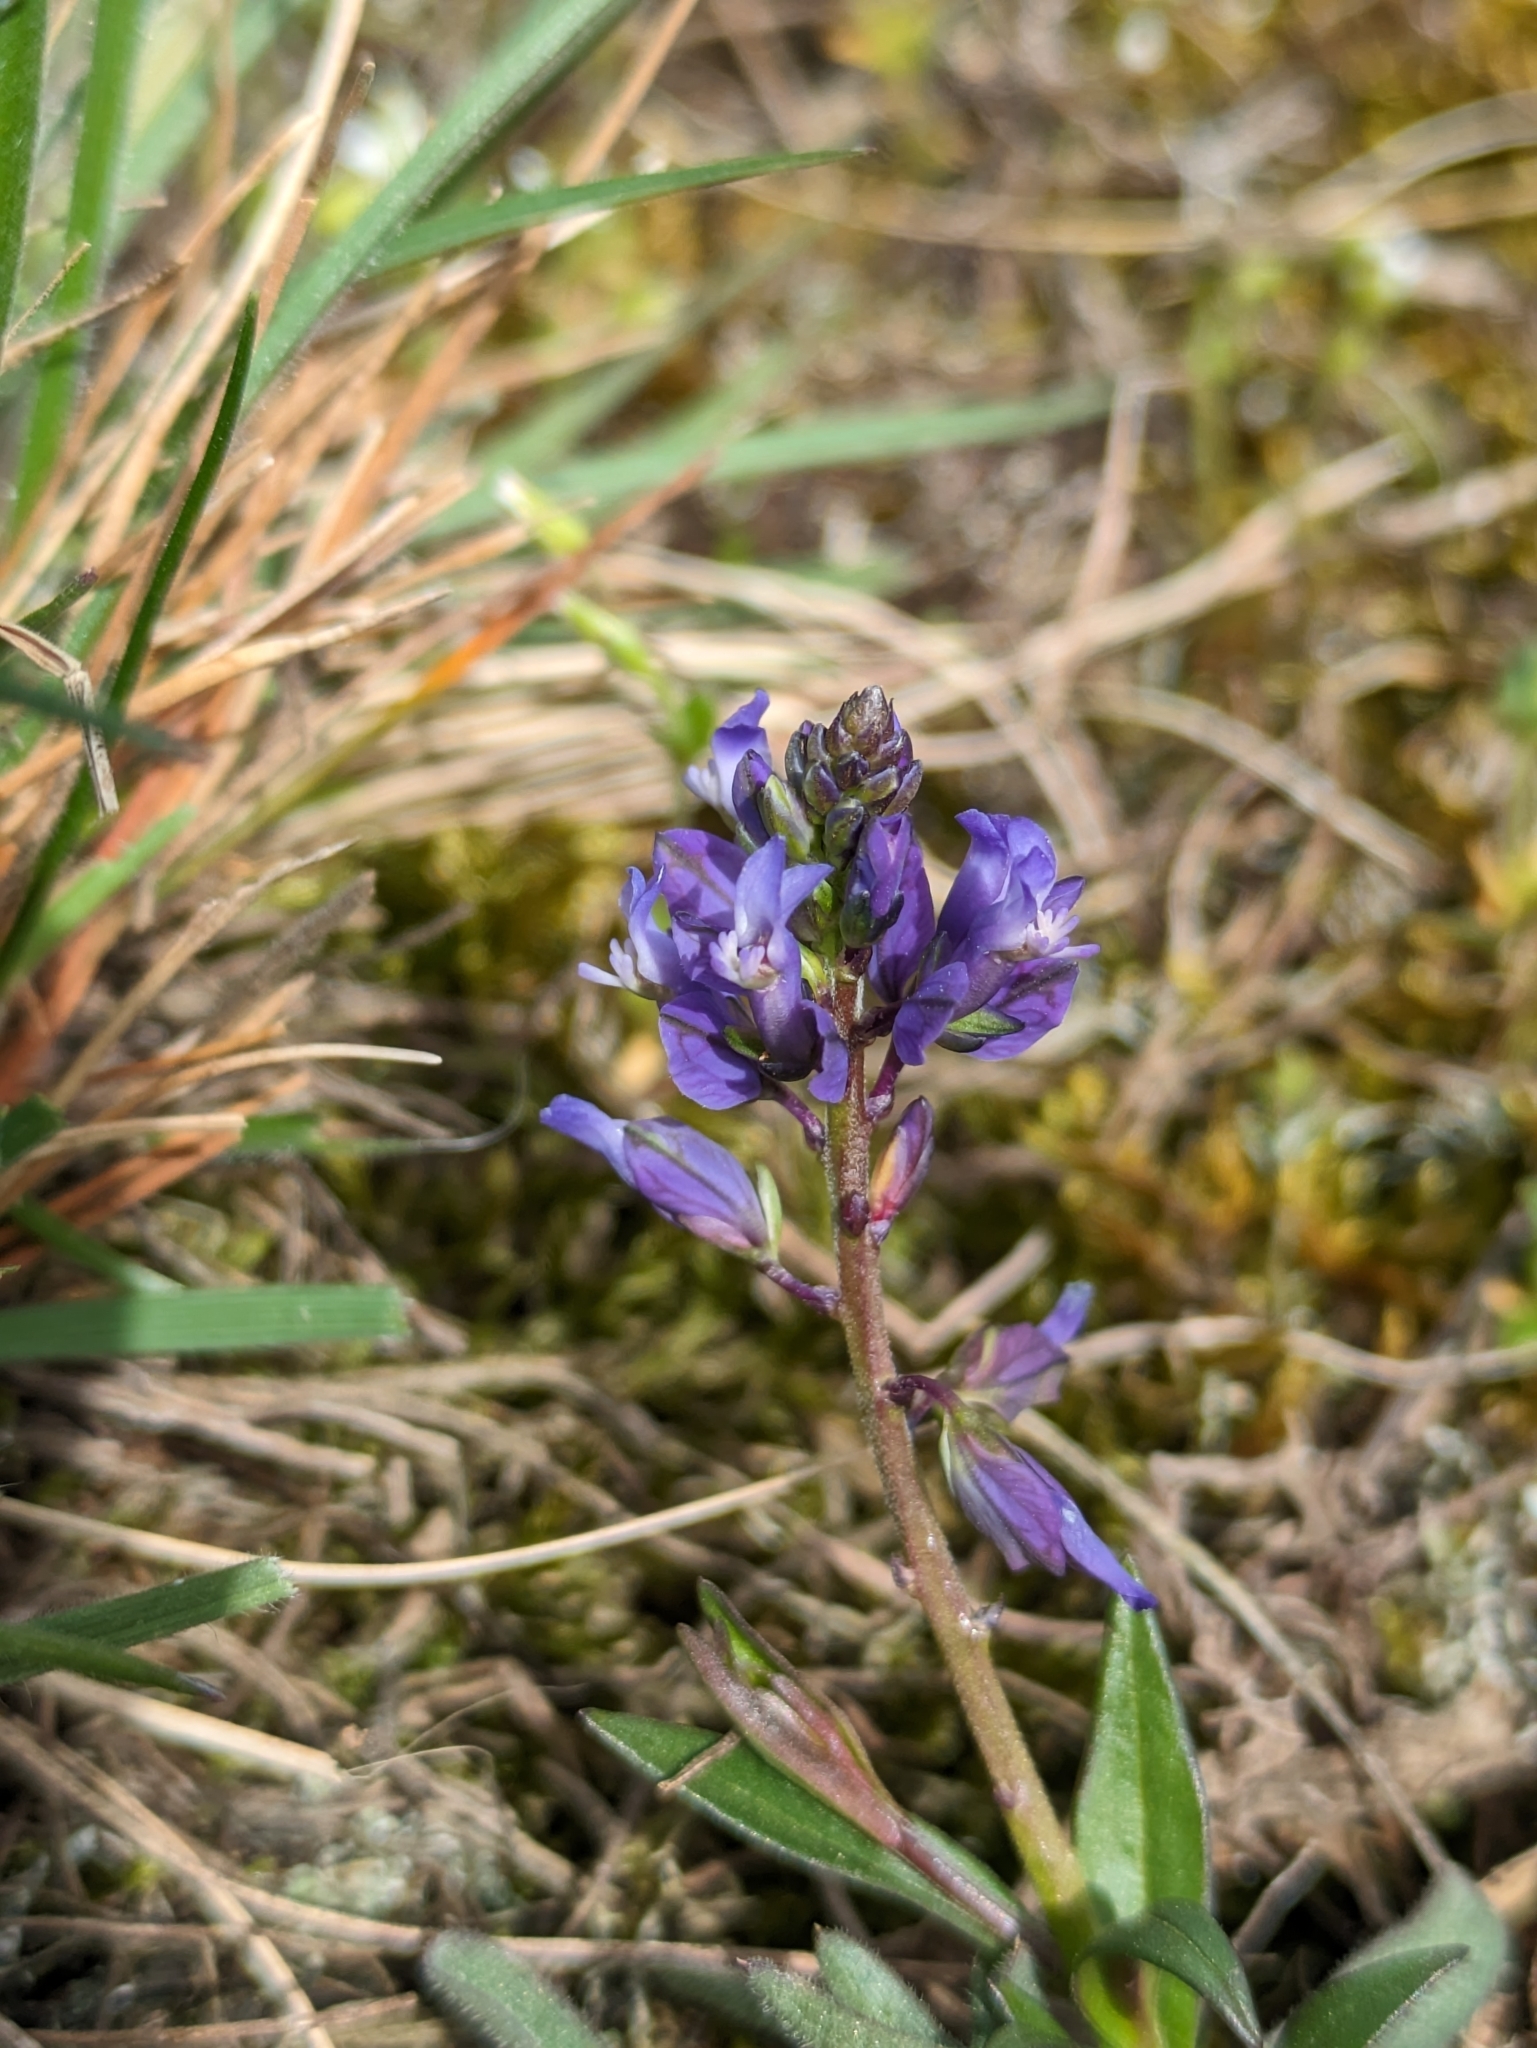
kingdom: Plantae
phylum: Tracheophyta
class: Magnoliopsida
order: Fabales
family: Polygalaceae
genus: Polygala
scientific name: Polygala vulgaris
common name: Common milkwort
